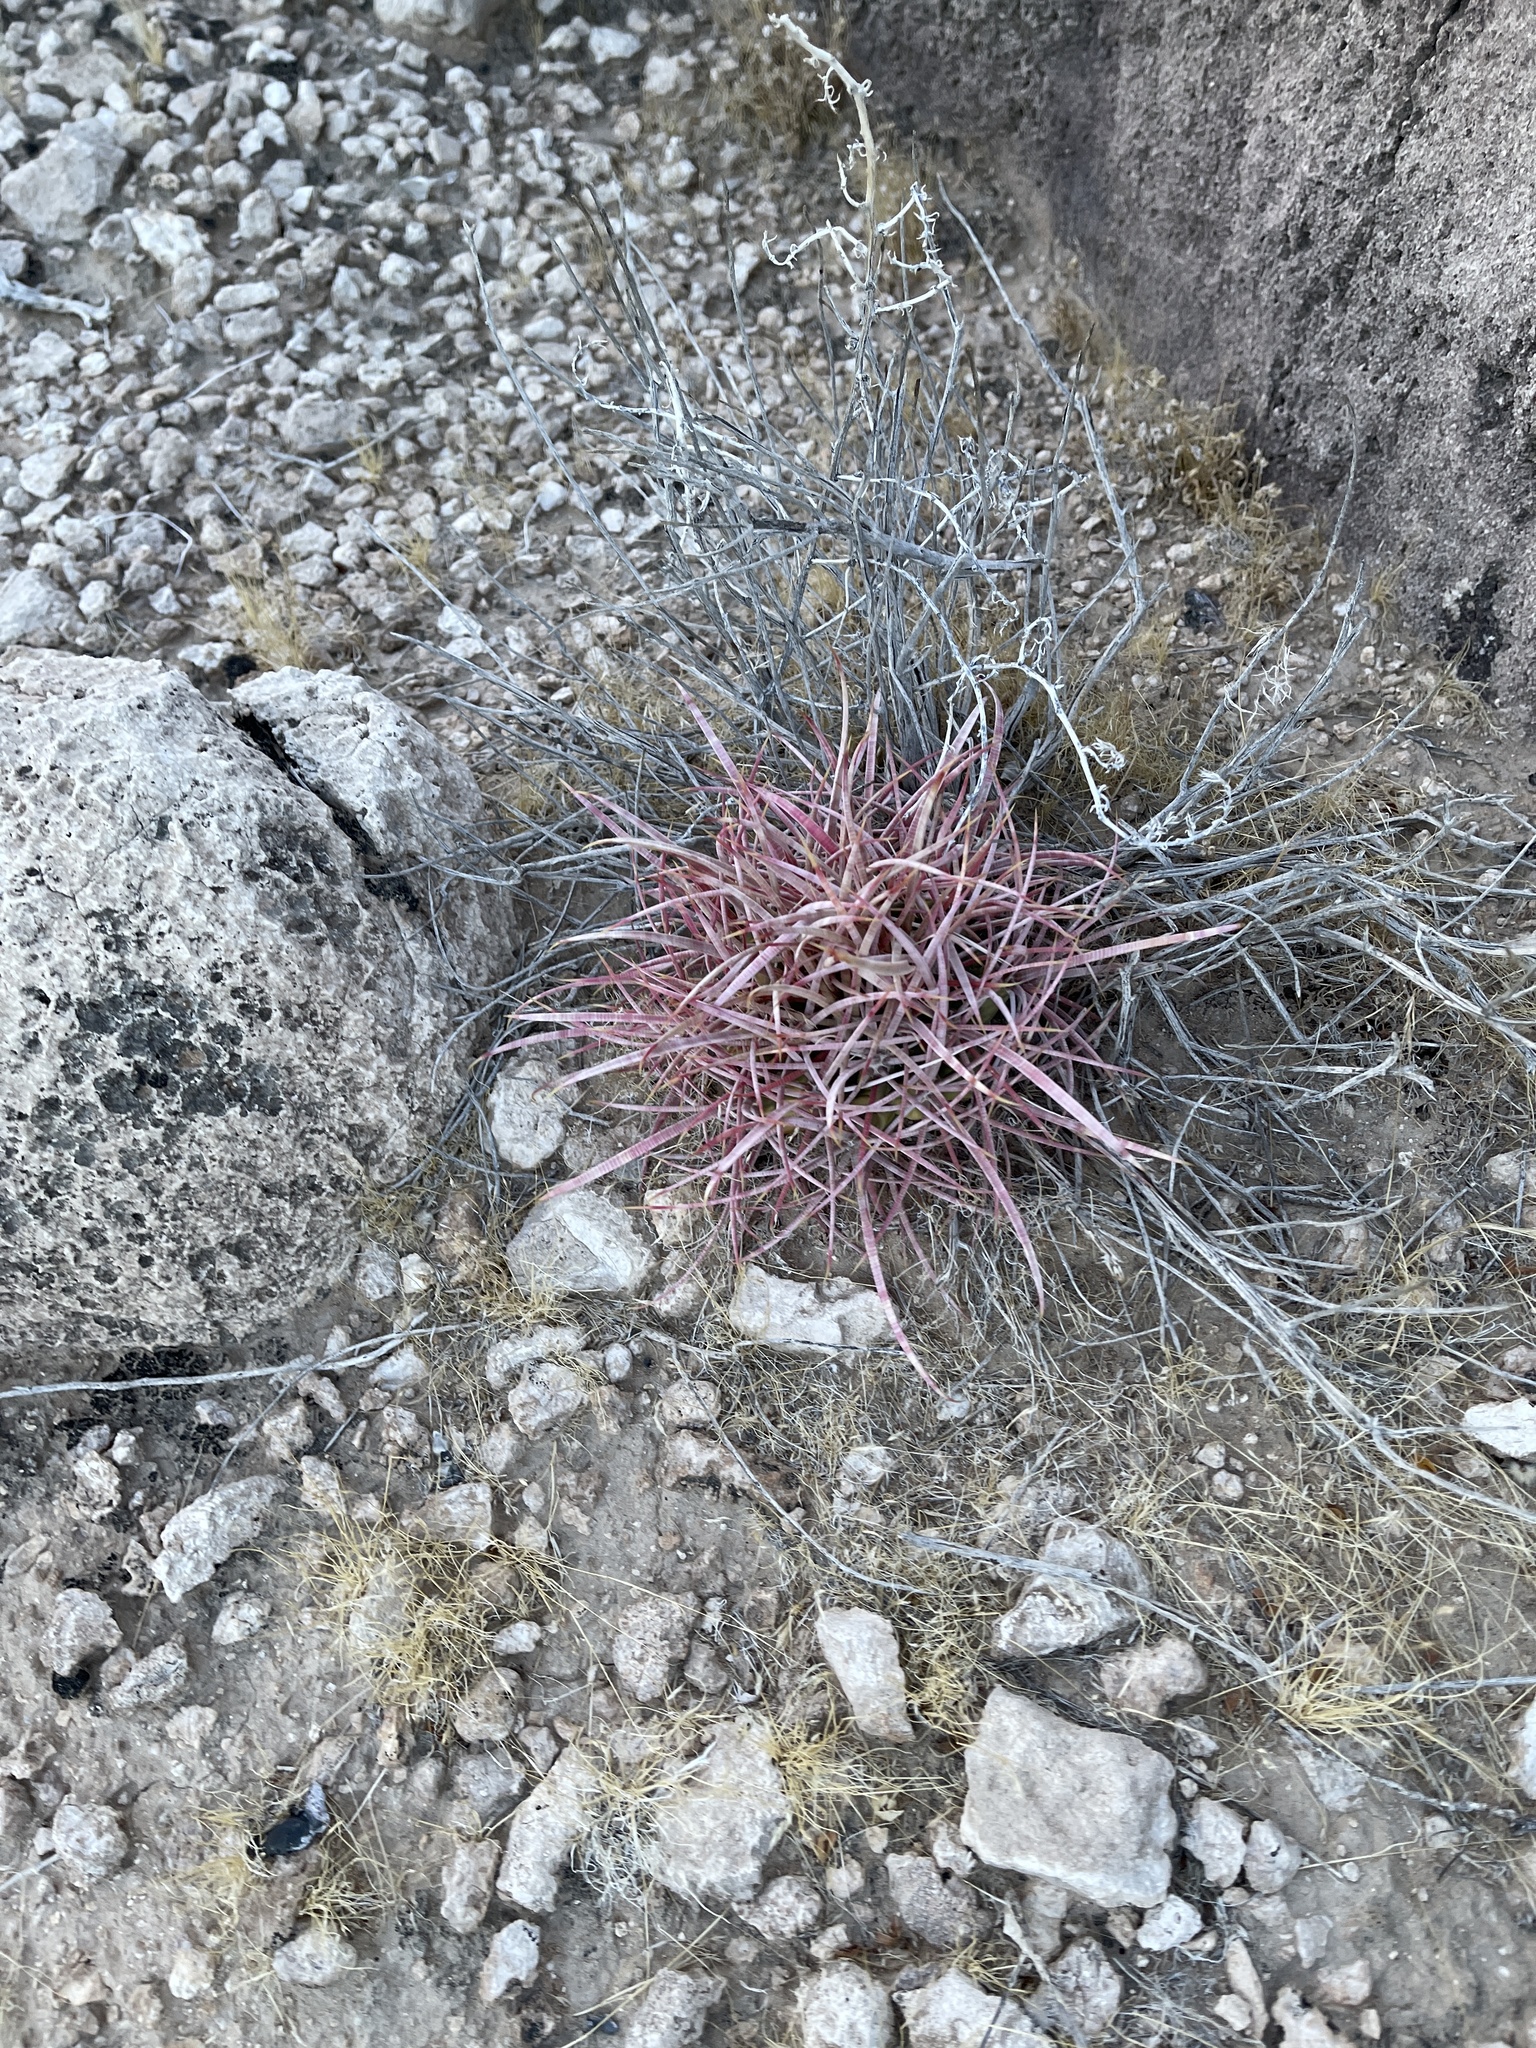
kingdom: Plantae
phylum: Tracheophyta
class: Magnoliopsida
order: Caryophyllales
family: Cactaceae
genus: Ferocactus
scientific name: Ferocactus cylindraceus
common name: California barrel cactus
